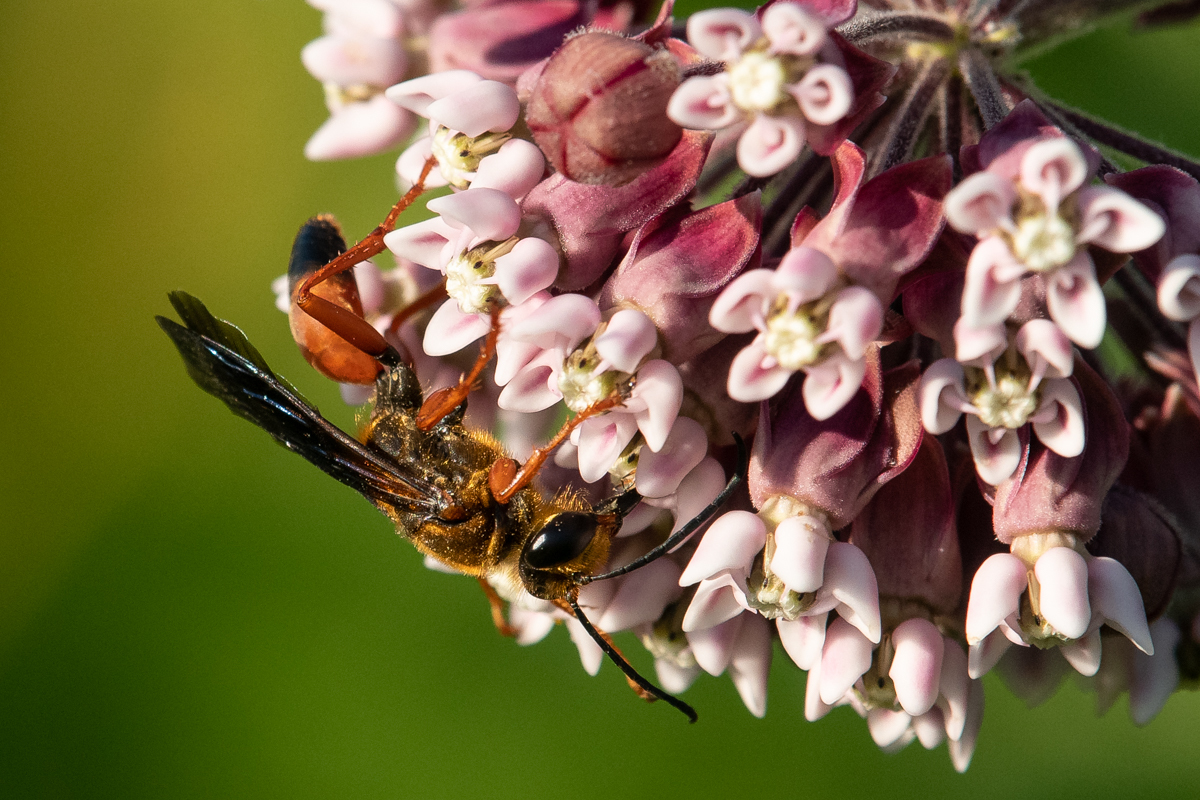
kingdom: Animalia
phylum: Arthropoda
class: Insecta
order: Hymenoptera
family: Sphecidae
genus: Sphex
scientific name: Sphex ichneumoneus
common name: Great golden digger wasp
